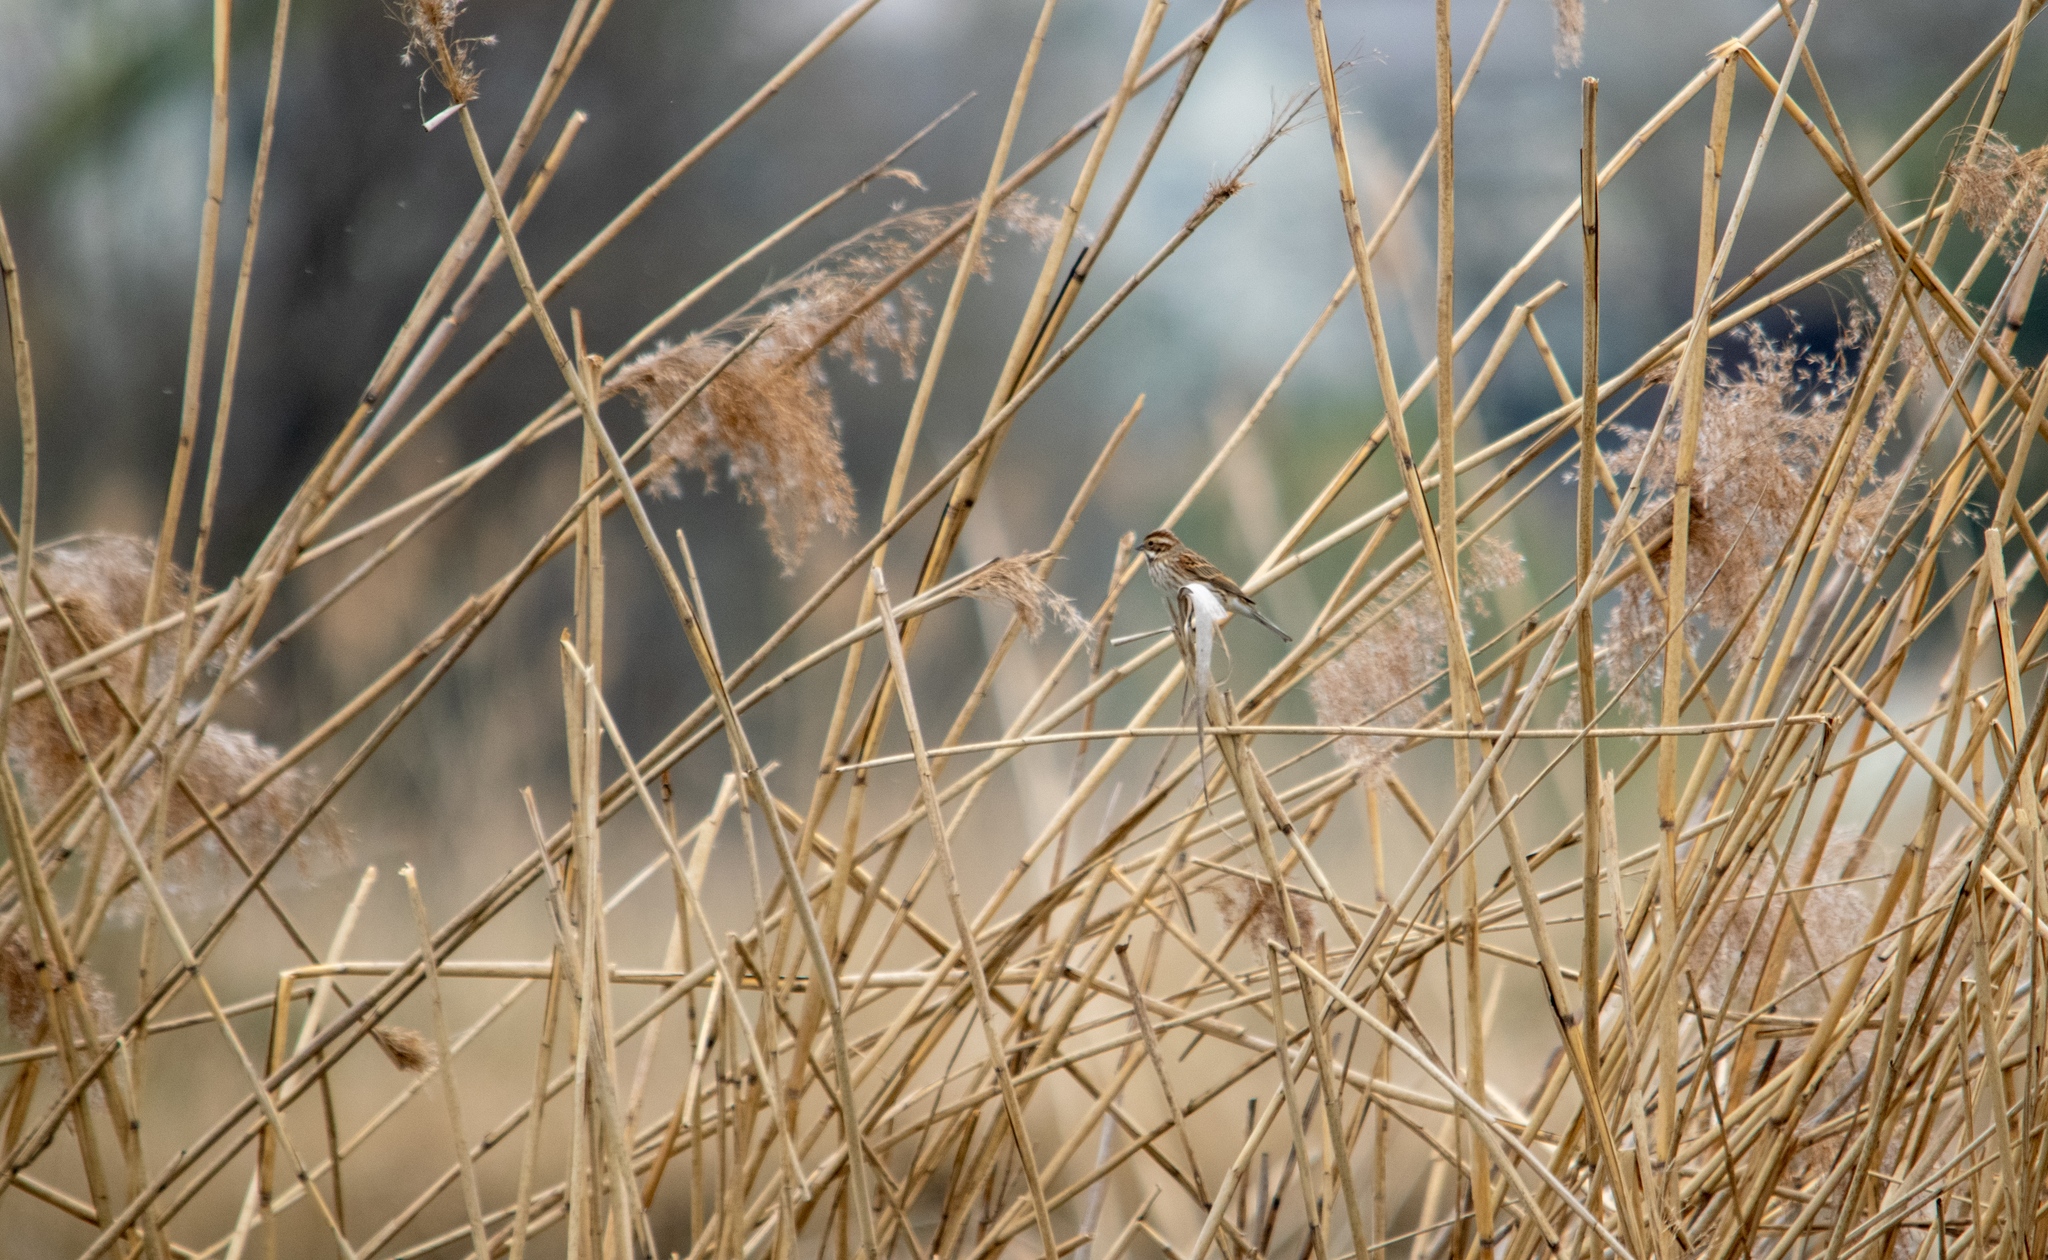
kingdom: Animalia
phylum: Chordata
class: Aves
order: Passeriformes
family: Emberizidae
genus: Emberiza
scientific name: Emberiza schoeniclus
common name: Reed bunting
